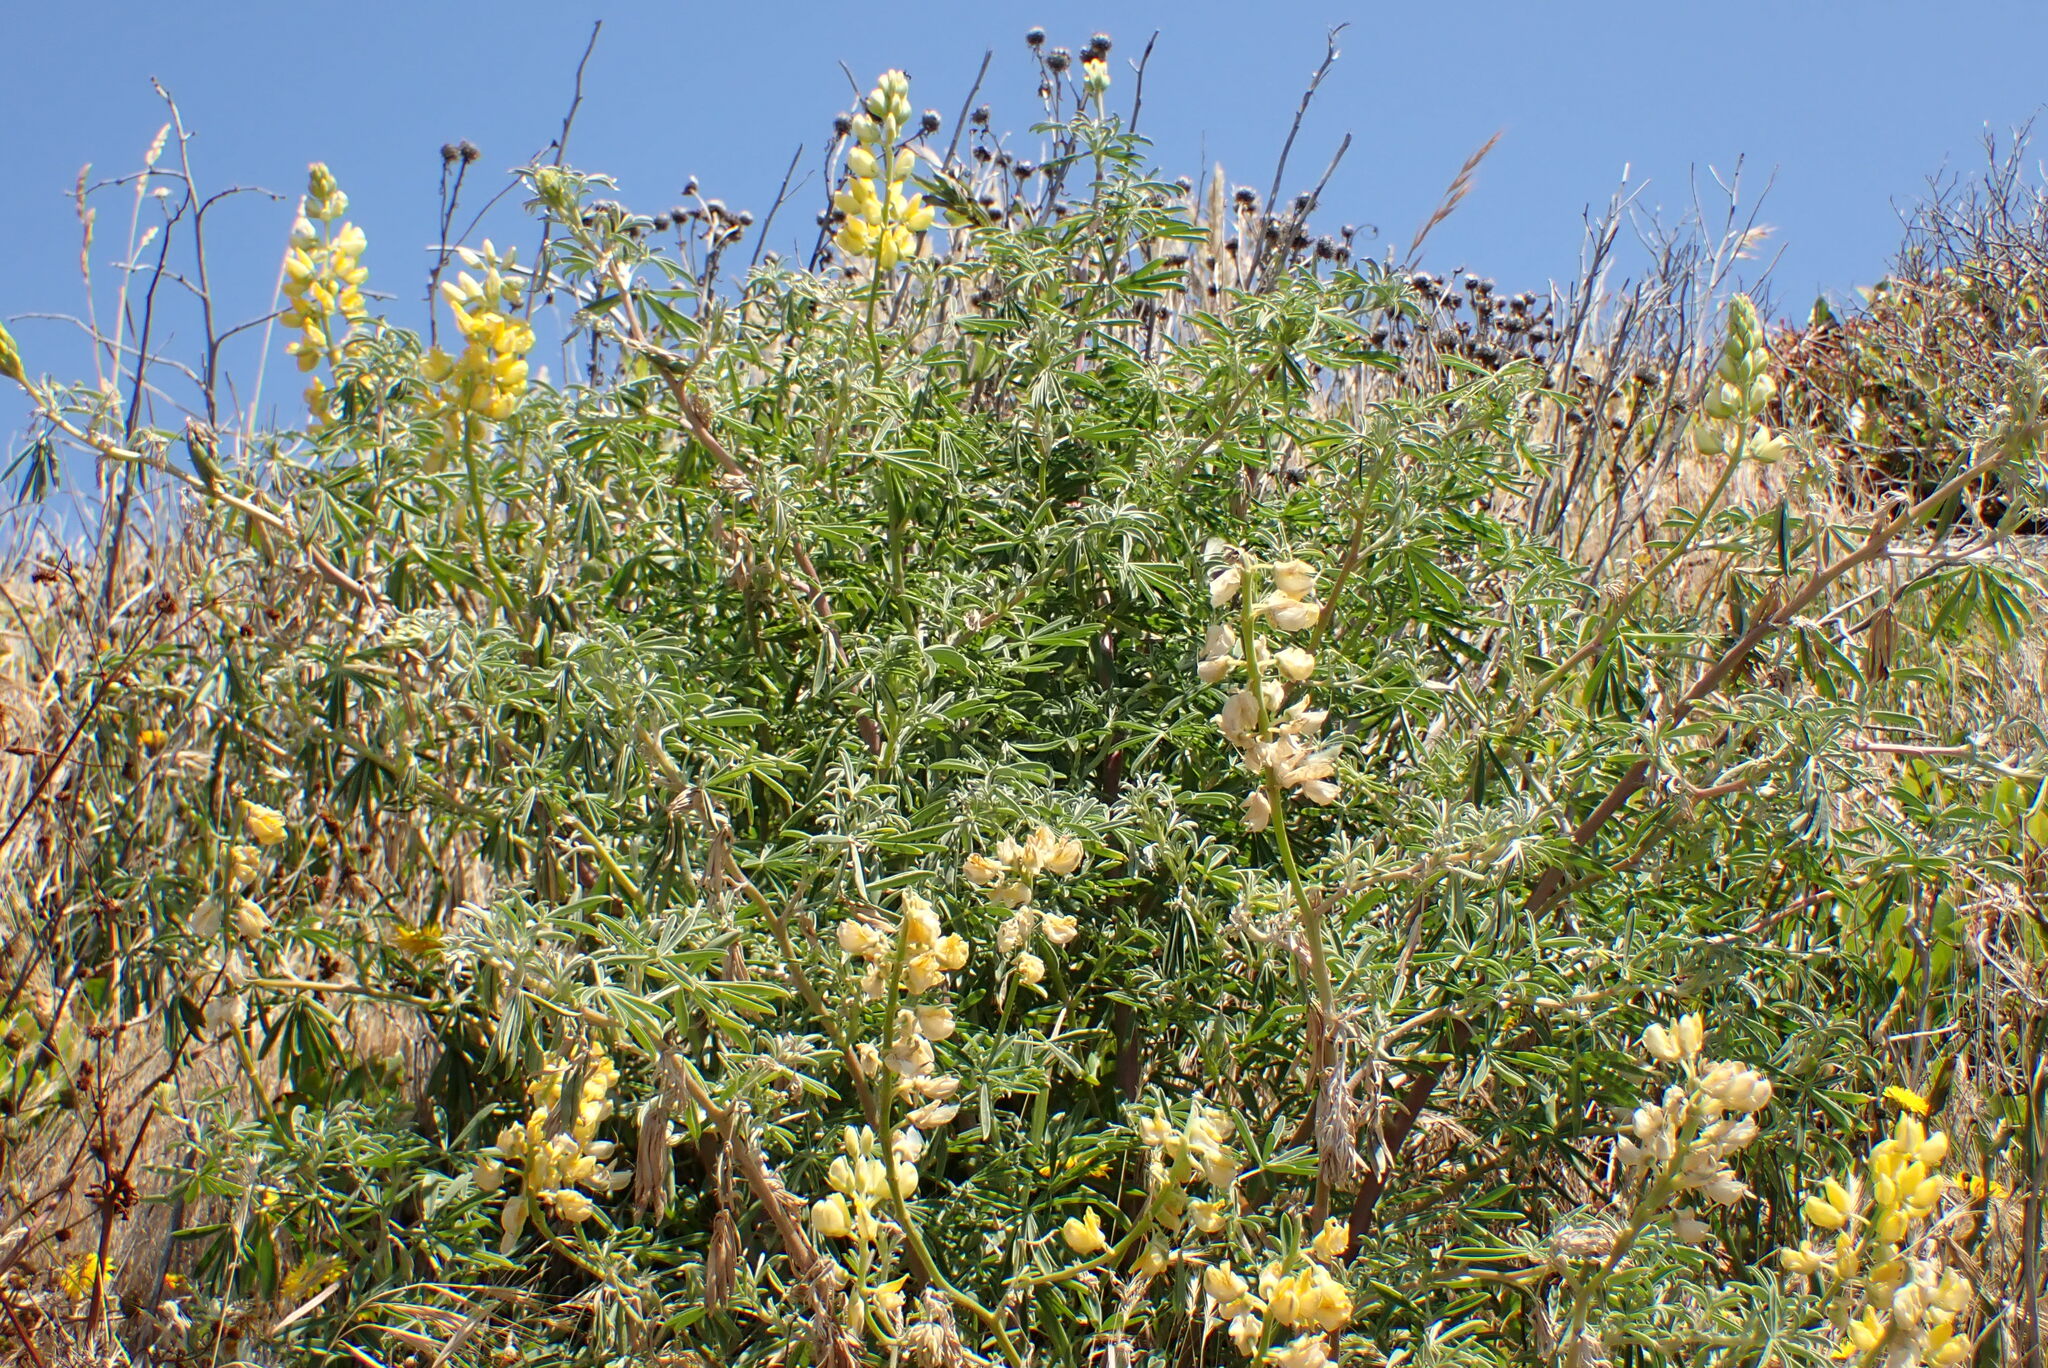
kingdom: Plantae
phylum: Tracheophyta
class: Magnoliopsida
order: Fabales
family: Fabaceae
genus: Lupinus
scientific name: Lupinus arboreus
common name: Yellow bush lupine
